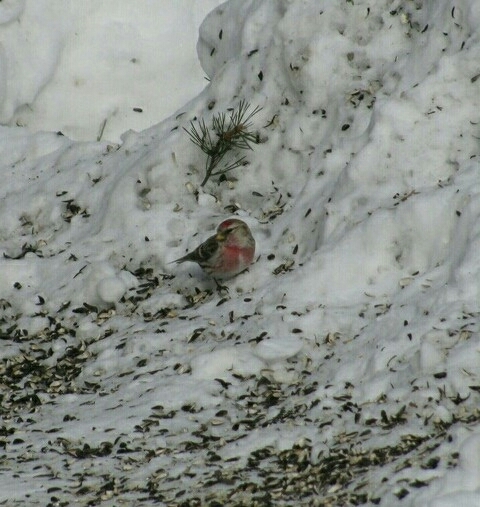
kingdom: Animalia
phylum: Chordata
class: Aves
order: Passeriformes
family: Fringillidae
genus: Acanthis
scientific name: Acanthis flammea
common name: Common redpoll
